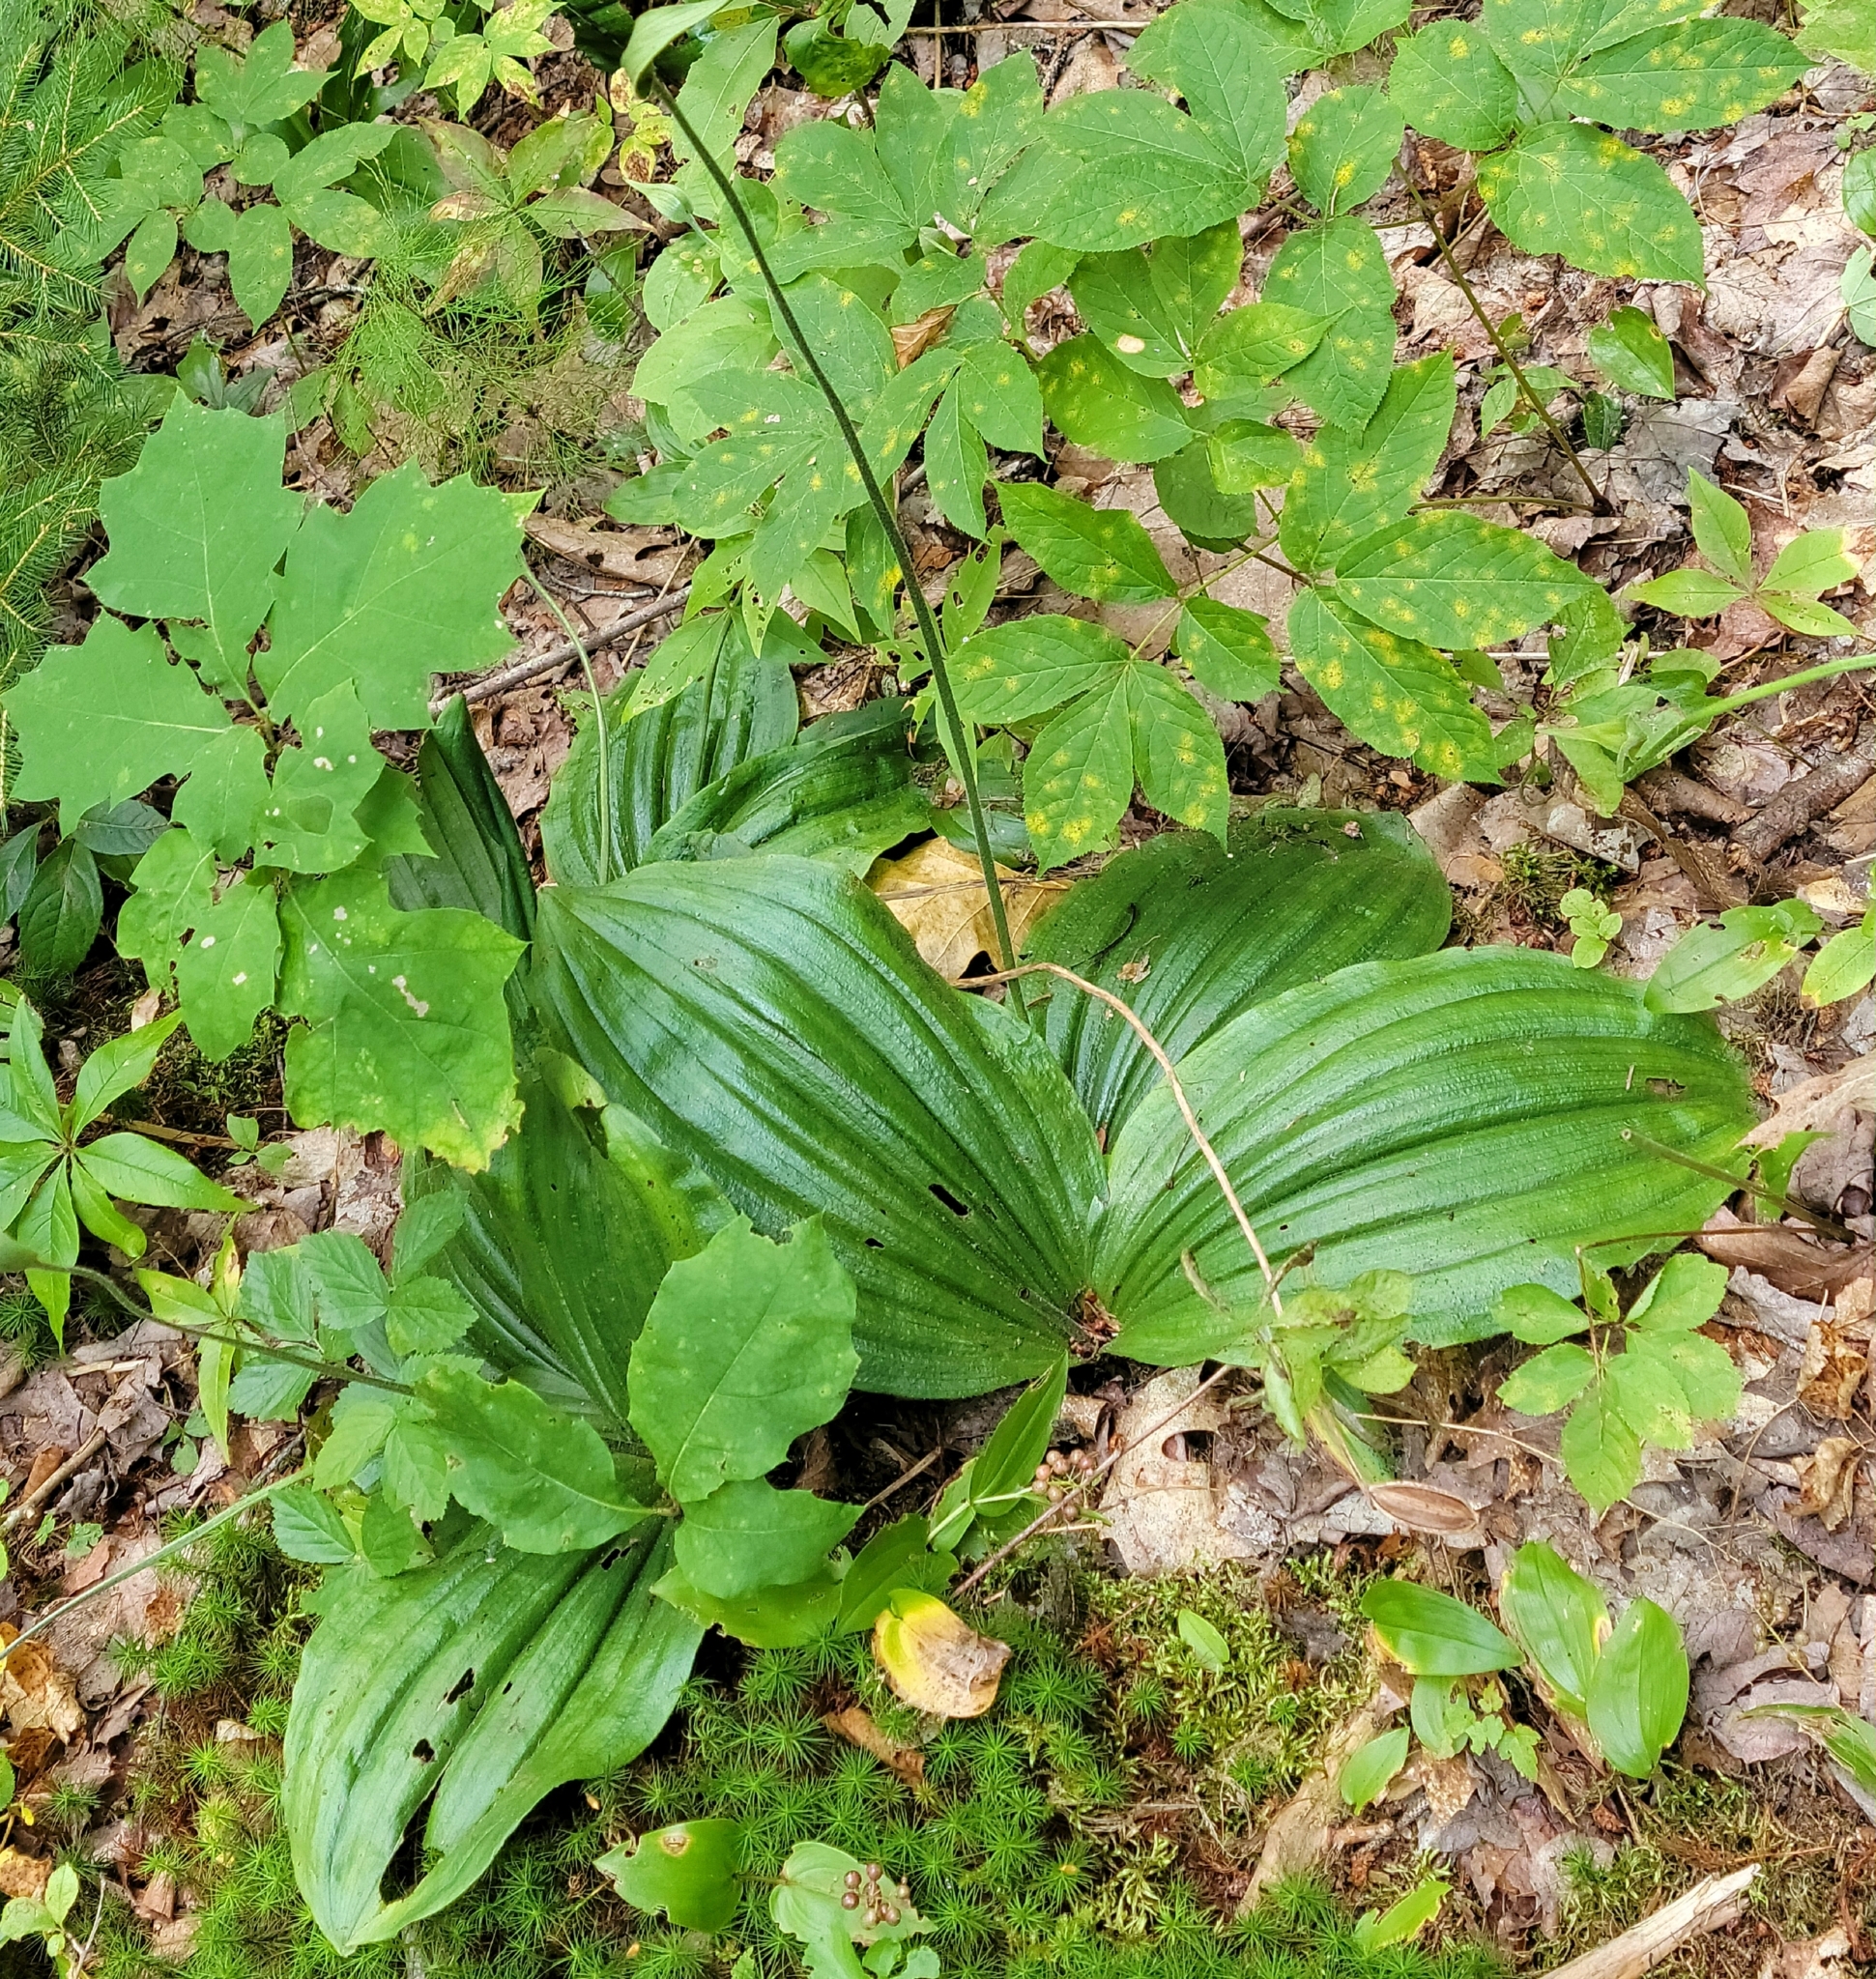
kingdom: Plantae
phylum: Tracheophyta
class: Liliopsida
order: Asparagales
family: Orchidaceae
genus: Cypripedium
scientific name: Cypripedium acaule
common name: Pink lady's-slipper
